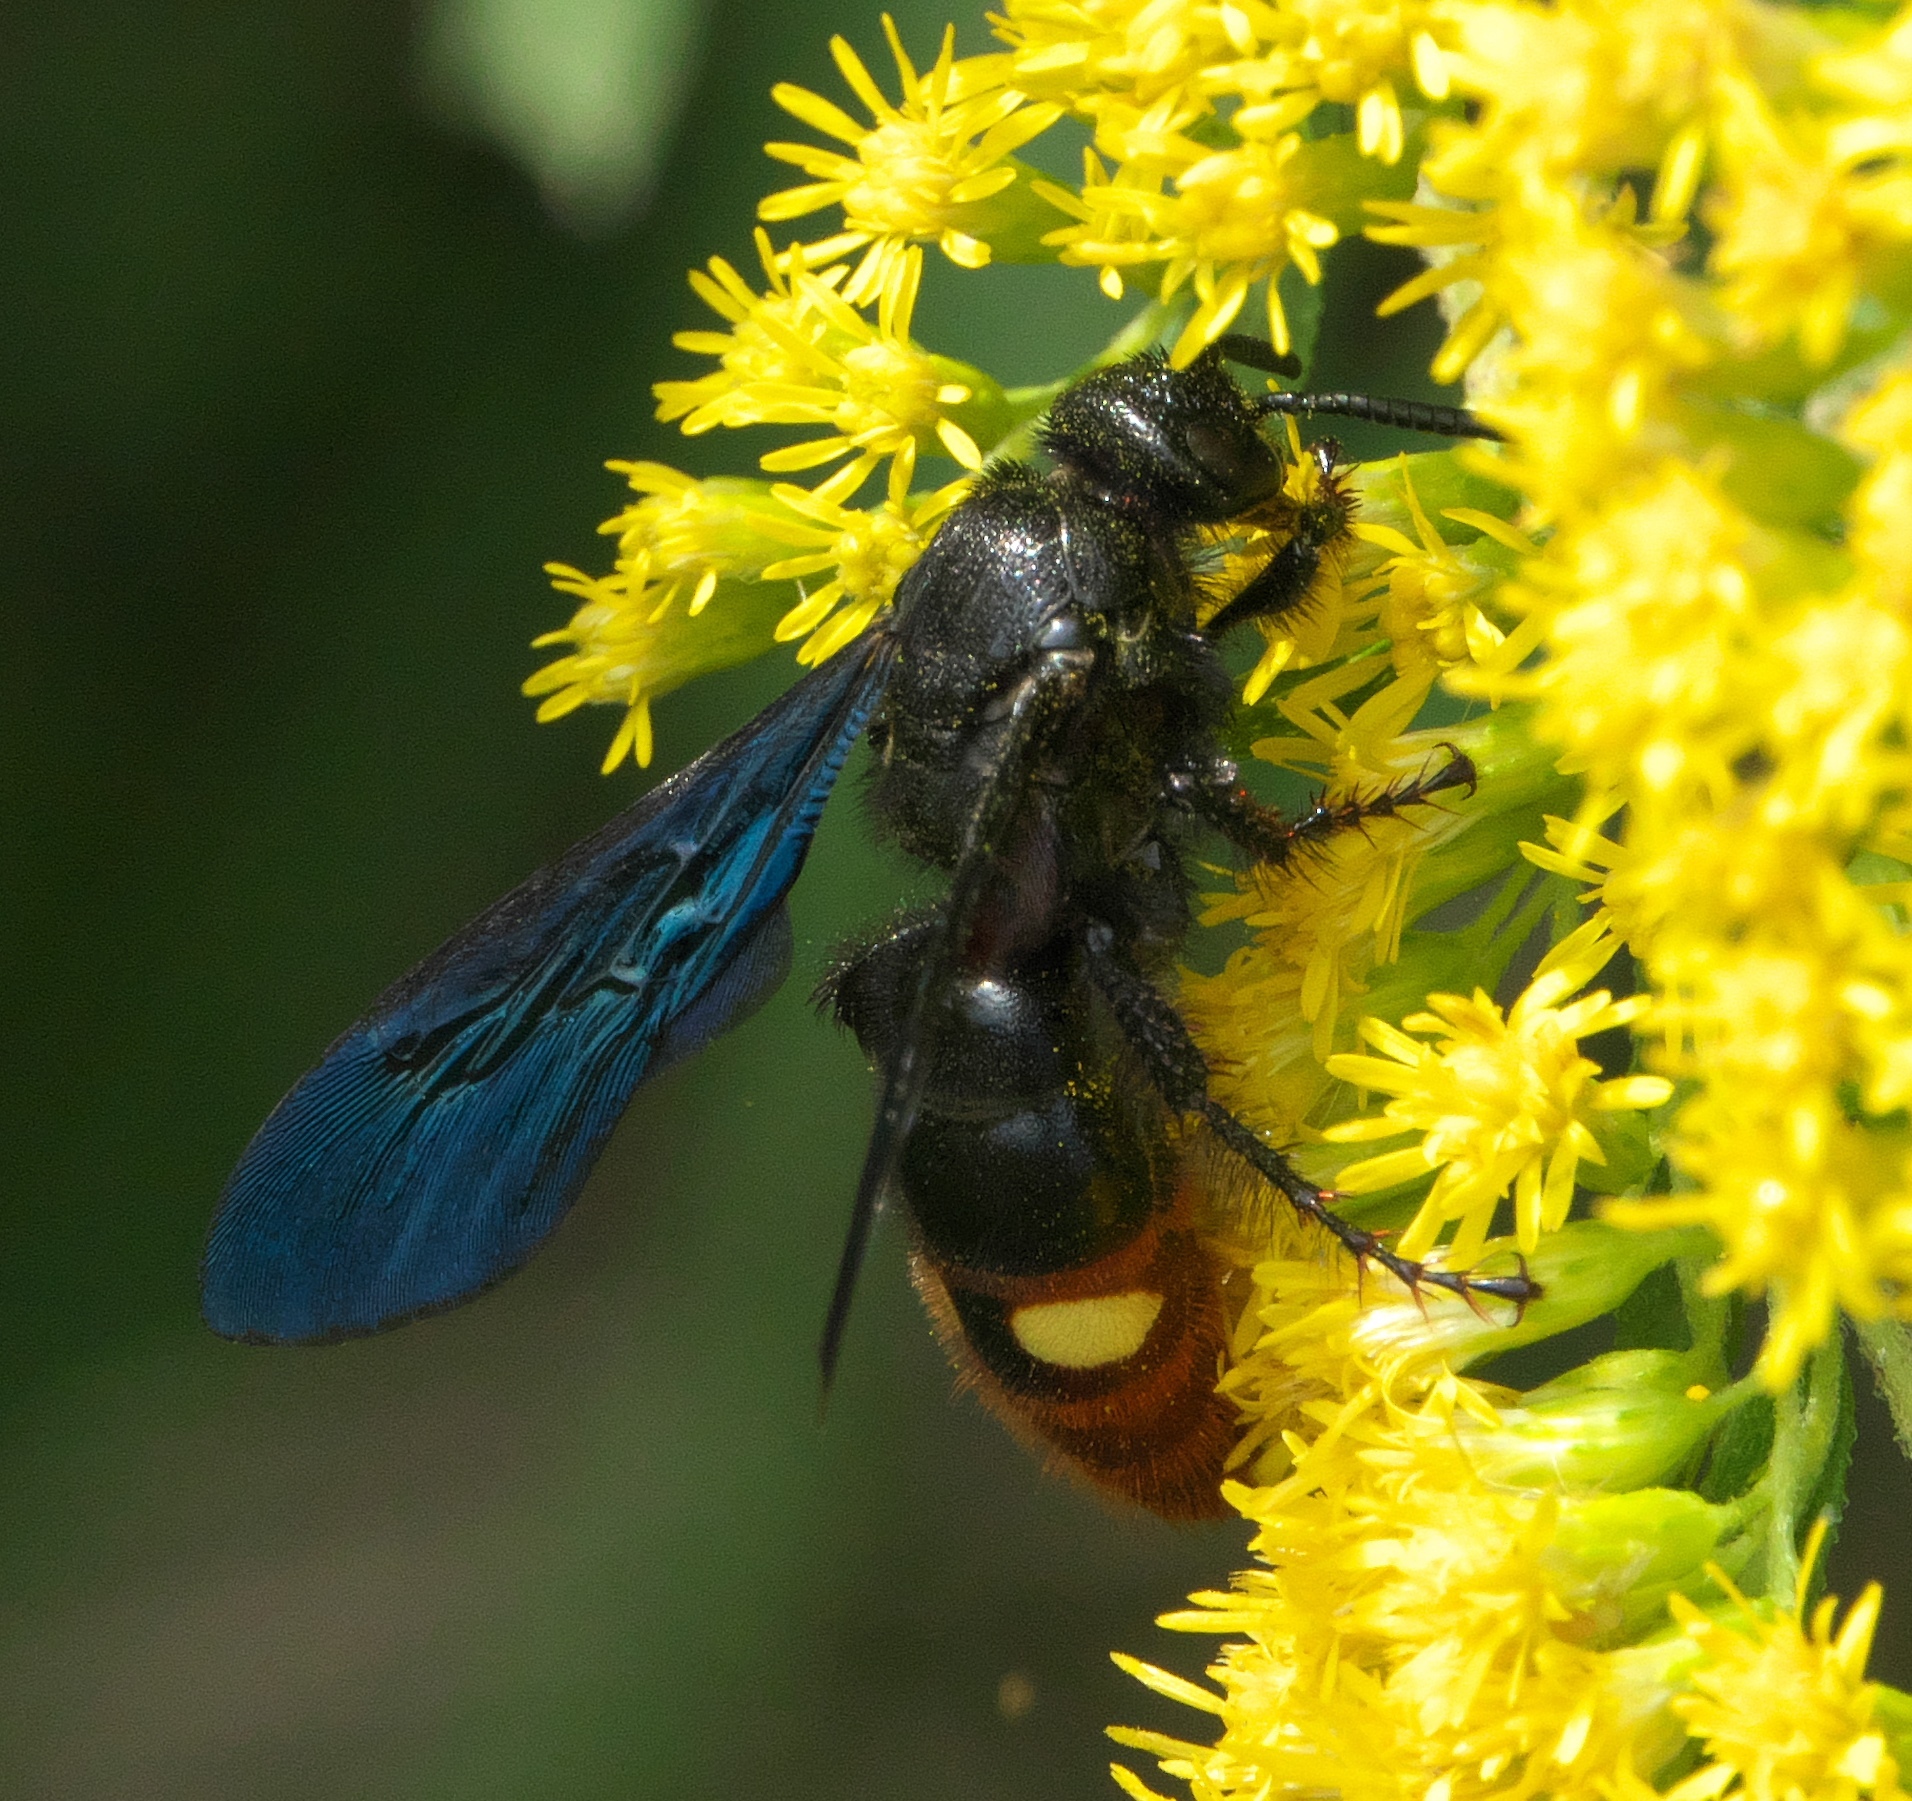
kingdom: Animalia
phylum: Arthropoda
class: Insecta
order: Hymenoptera
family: Scoliidae
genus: Scolia
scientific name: Scolia dubia
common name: Blue-winged scoliid wasp
